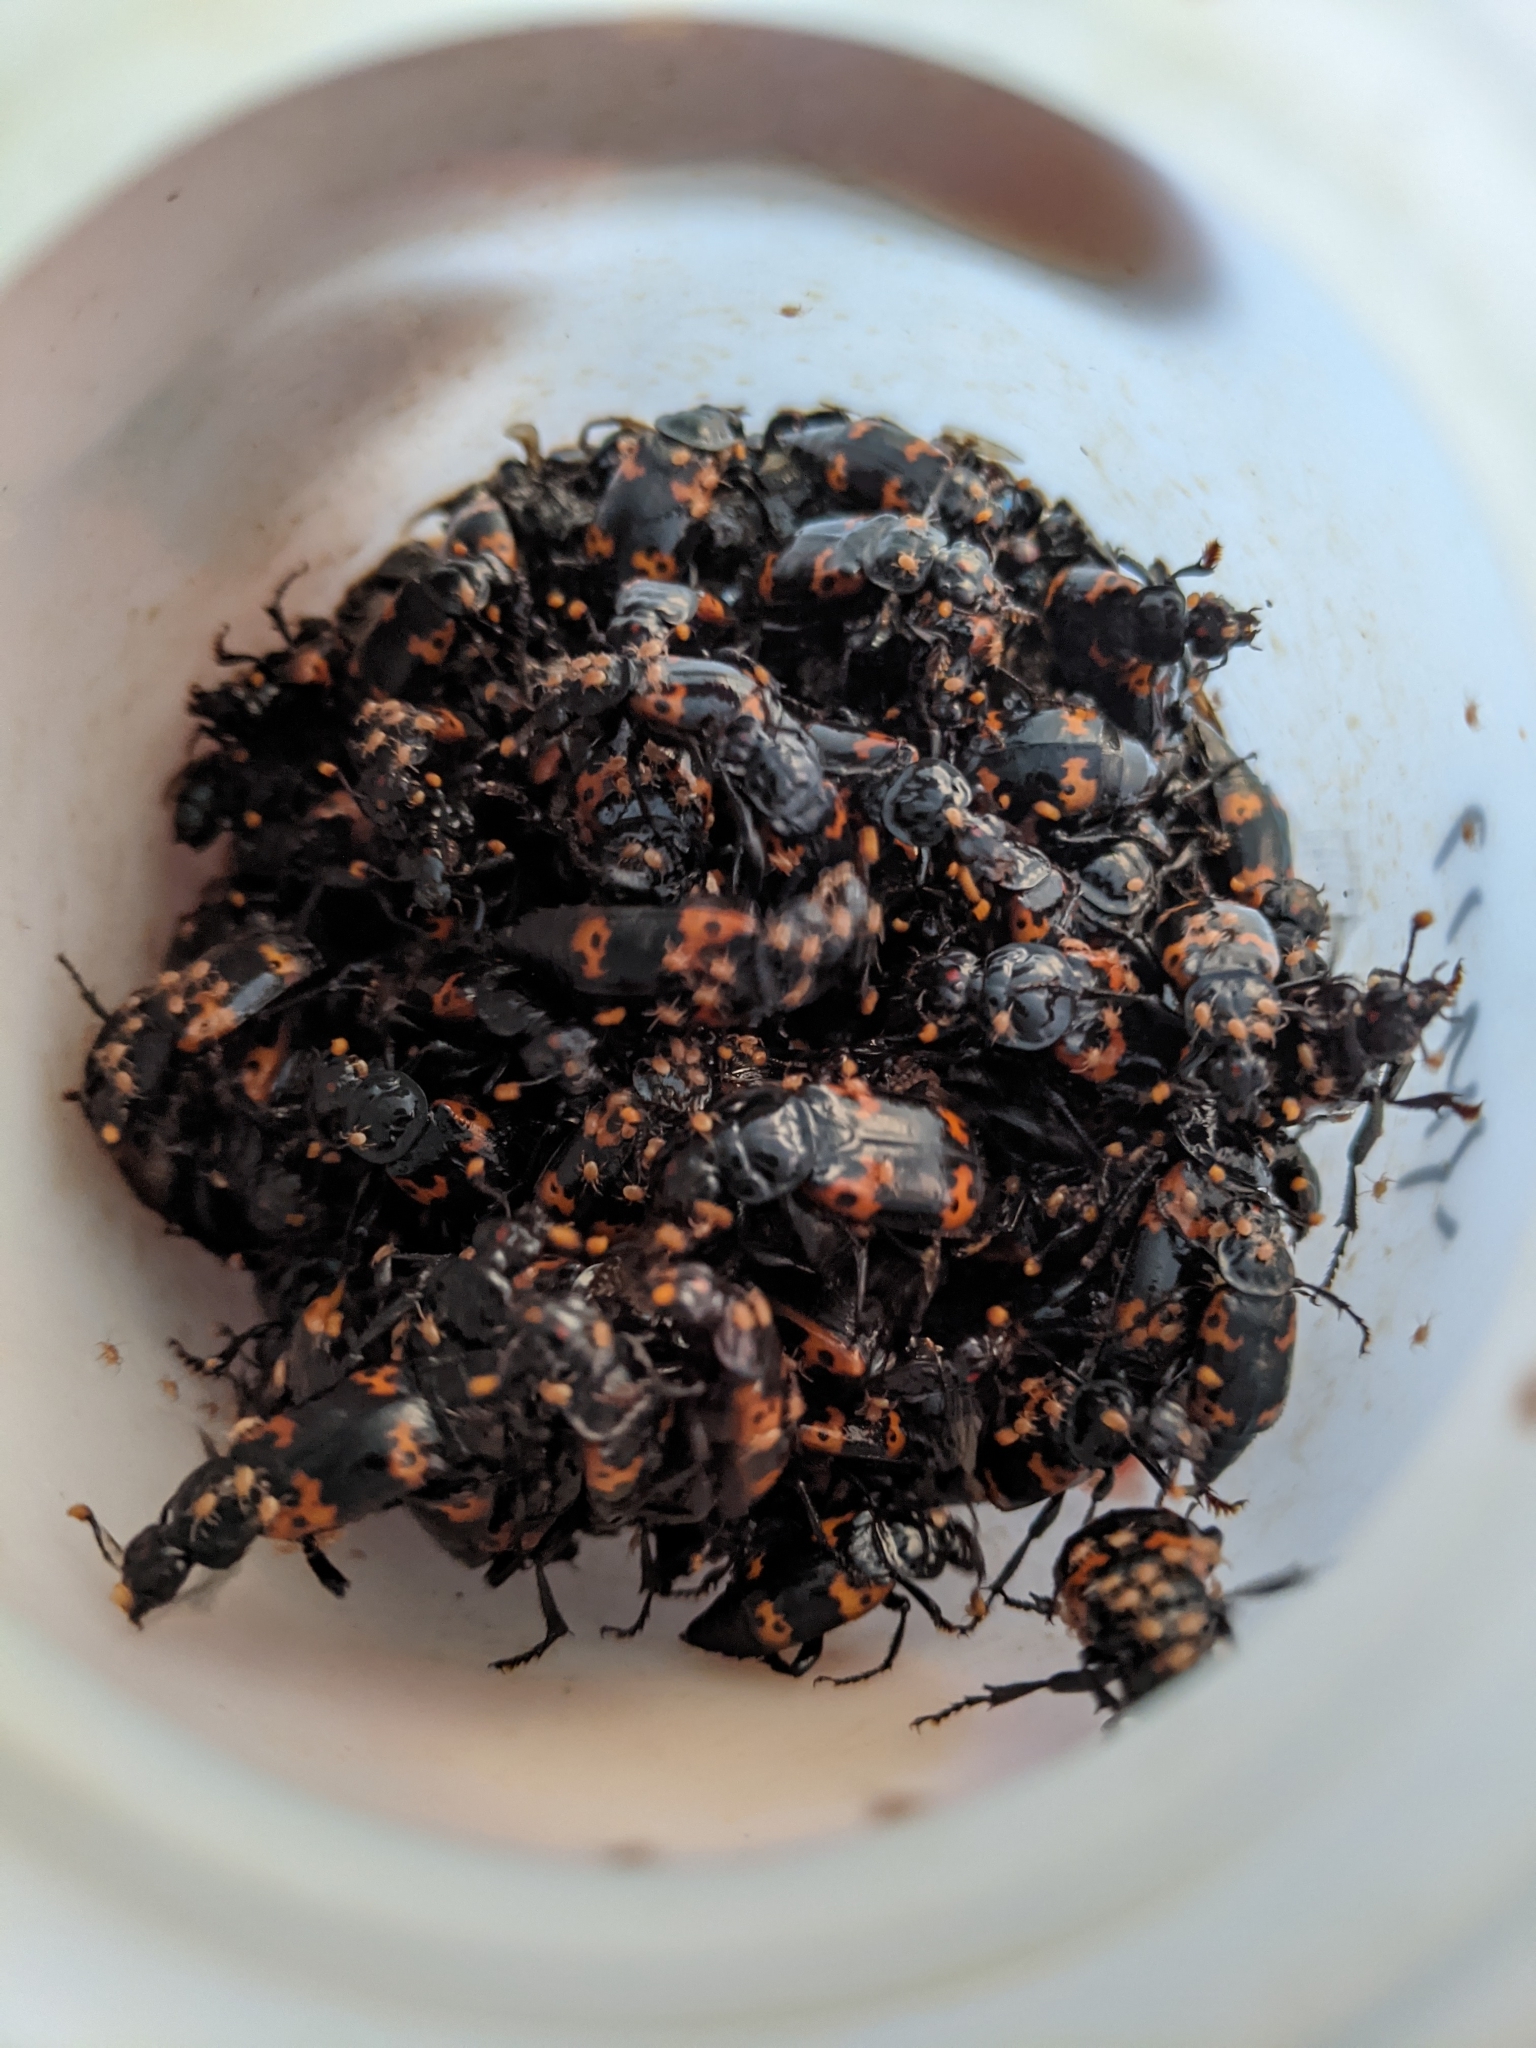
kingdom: Animalia
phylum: Arthropoda
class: Insecta
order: Coleoptera
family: Staphylinidae
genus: Nicrophorus
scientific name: Nicrophorus nepalensis
